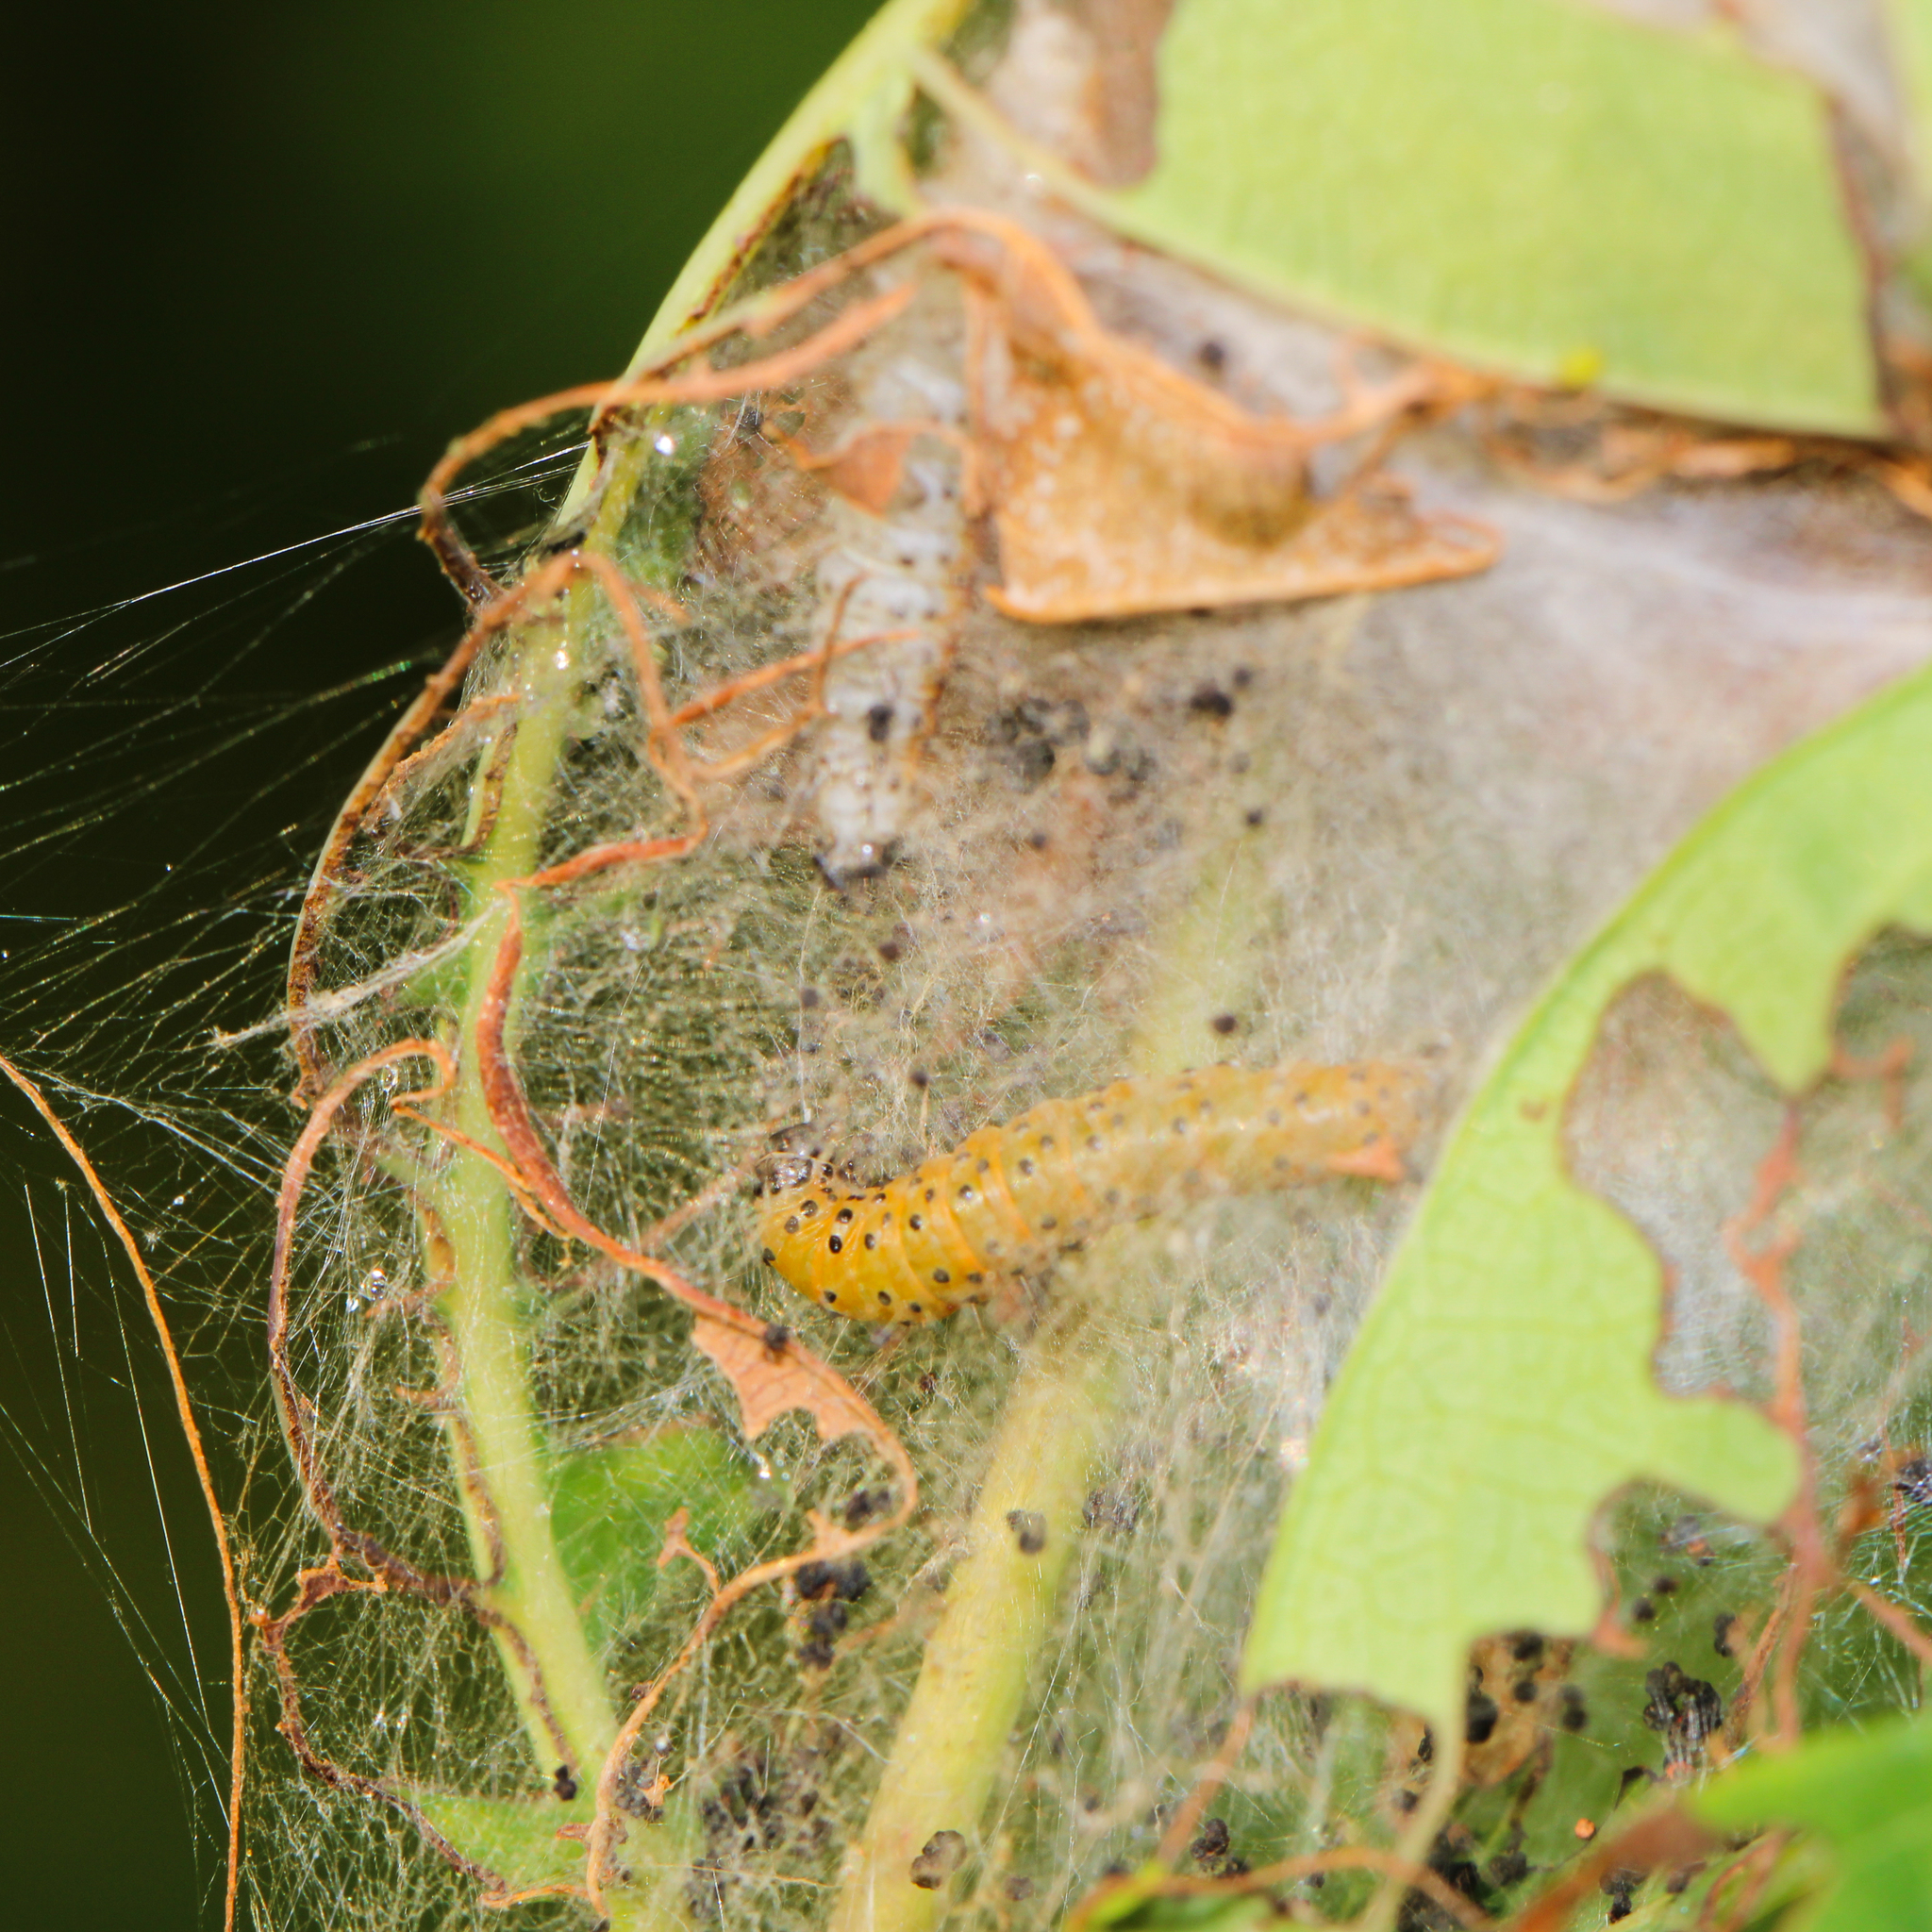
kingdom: Animalia
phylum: Arthropoda
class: Insecta
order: Lepidoptera
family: Crambidae
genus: Saucrobotys
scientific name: Saucrobotys futilalis
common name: Dogbane saucrobotys moth
